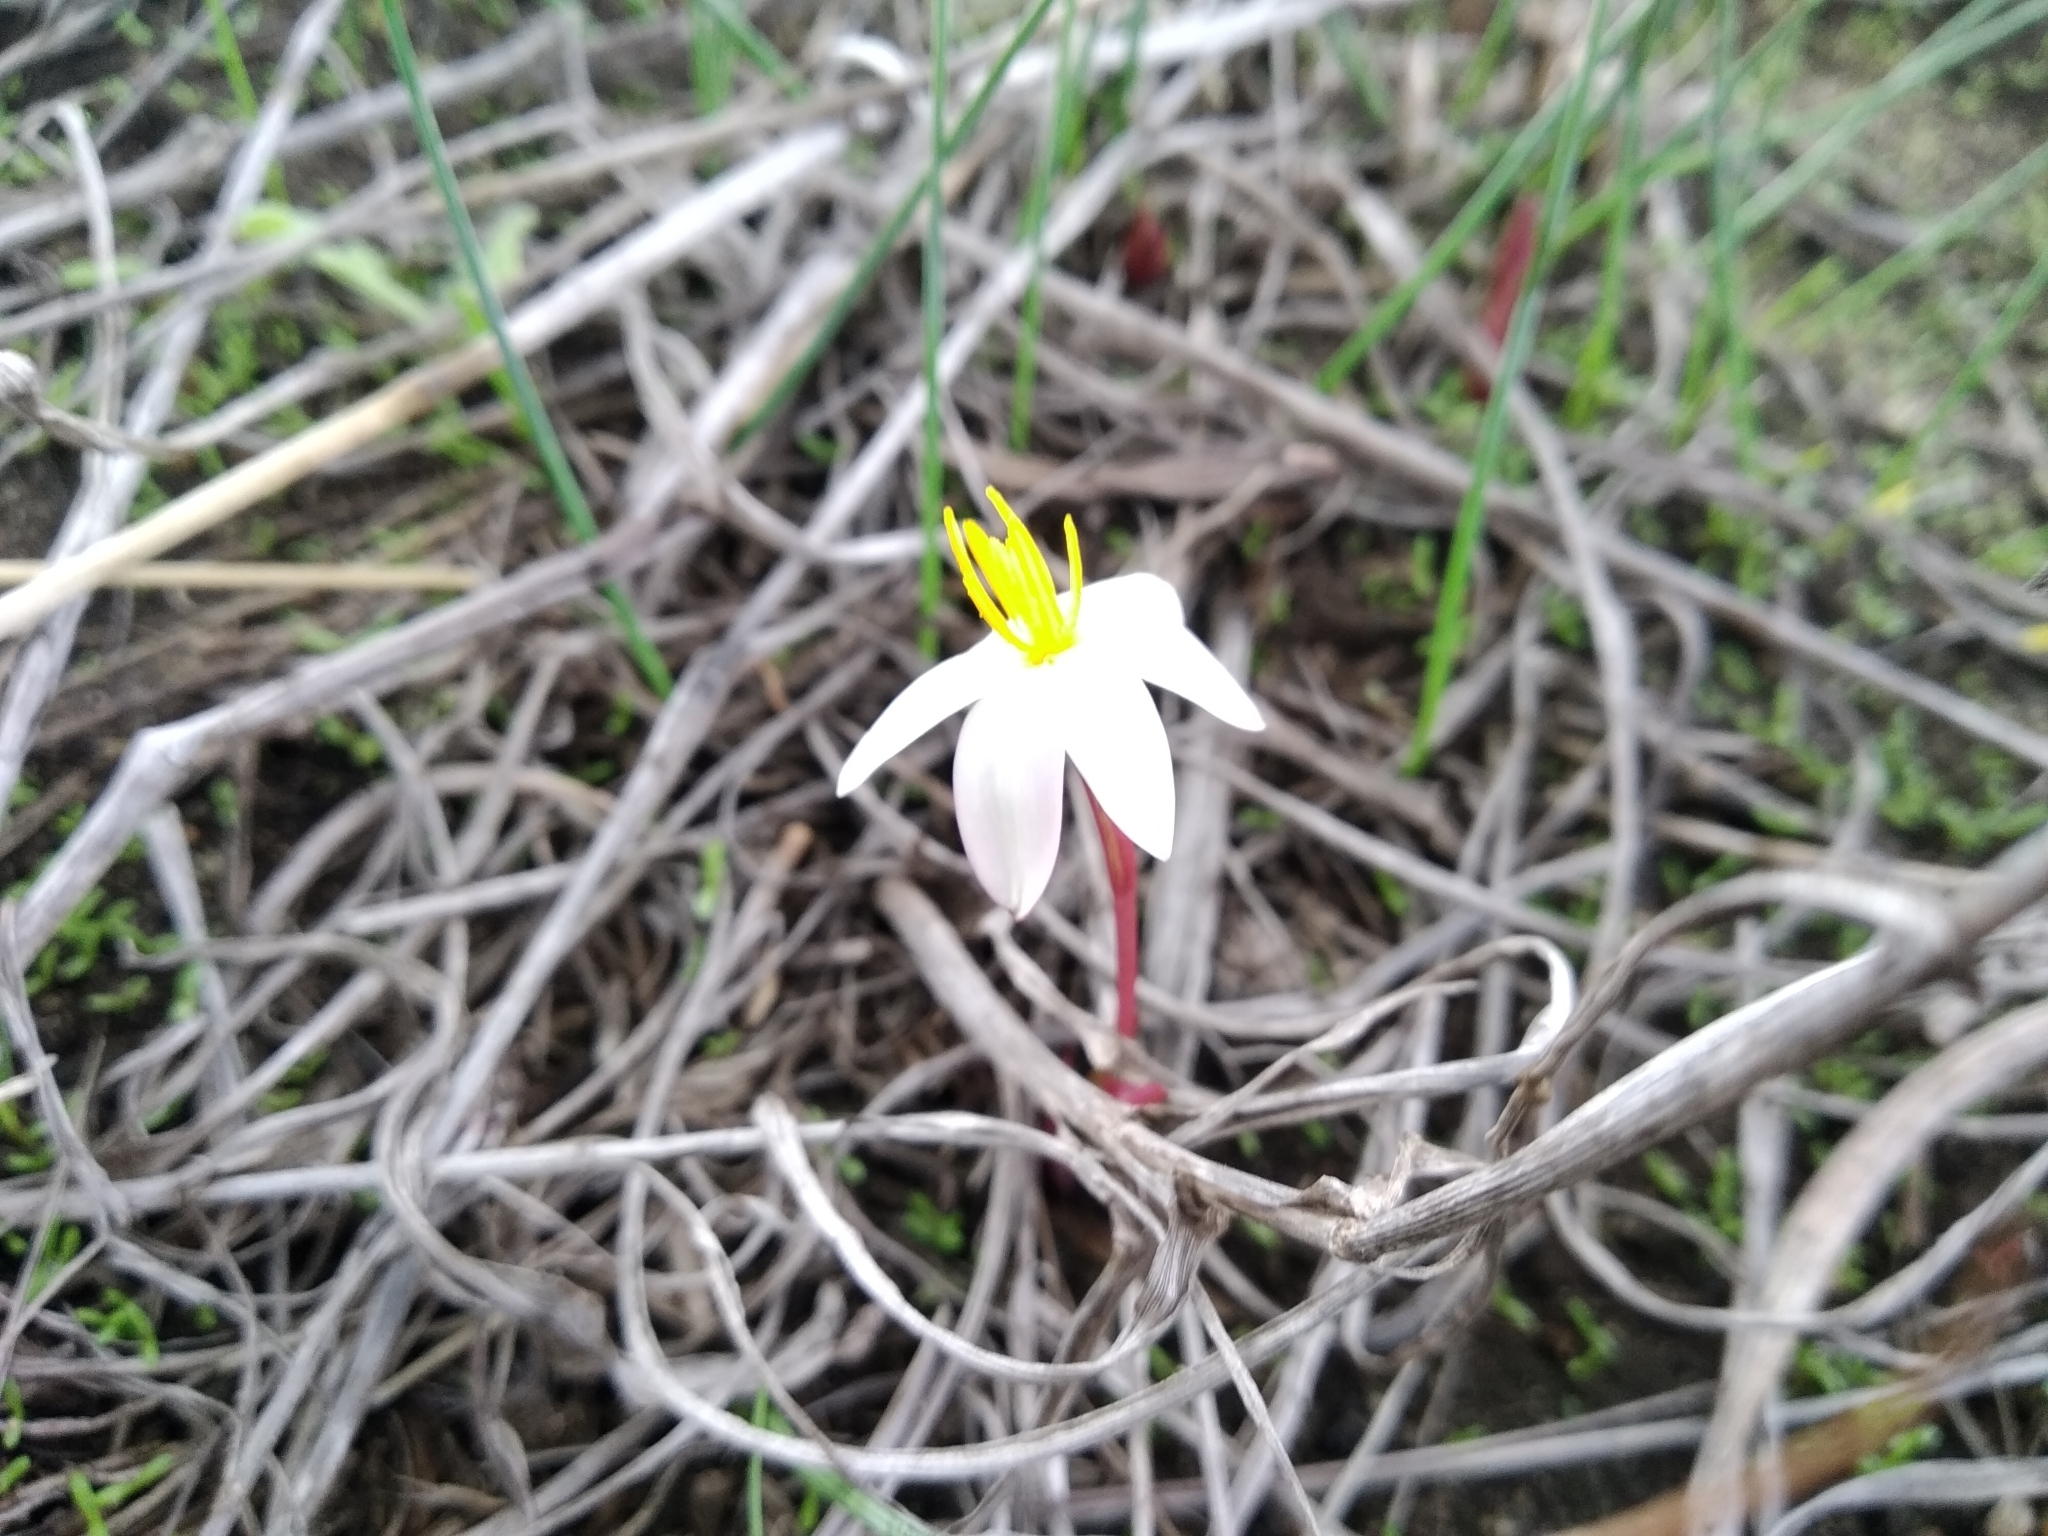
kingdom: Plantae
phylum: Tracheophyta
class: Liliopsida
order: Asparagales
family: Hypoxidaceae
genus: Pauridia
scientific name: Pauridia alba
